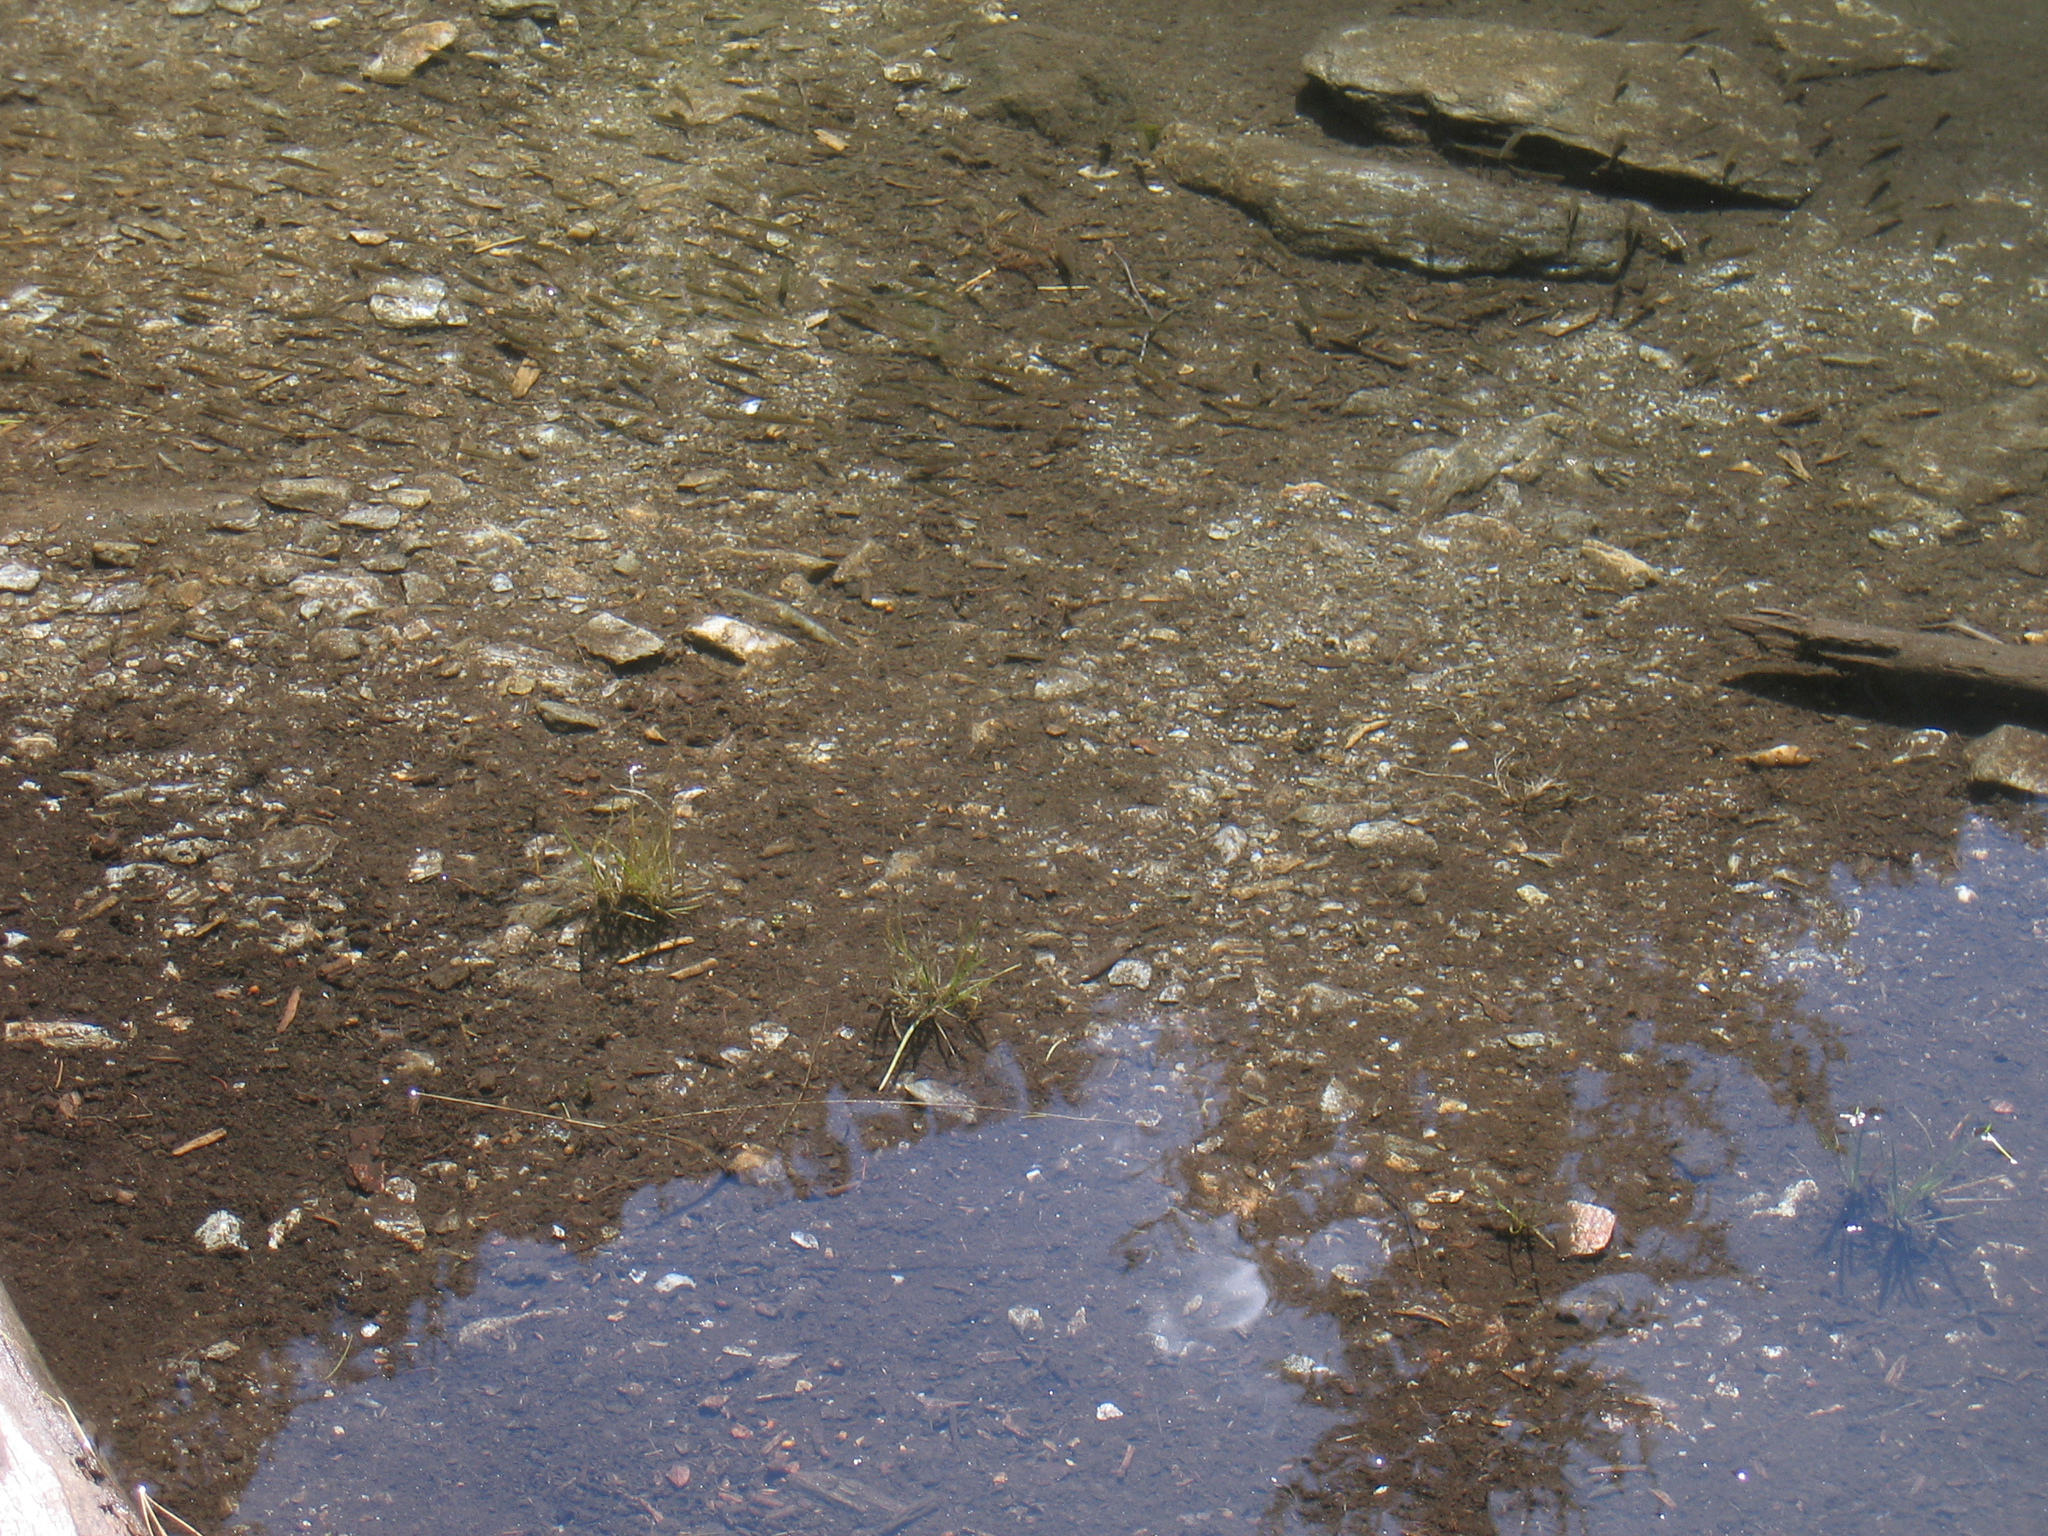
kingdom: Animalia
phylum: Chordata
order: Cypriniformes
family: Cyprinidae
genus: Phoxinus
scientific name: Phoxinus phoxinus
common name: Minnow
